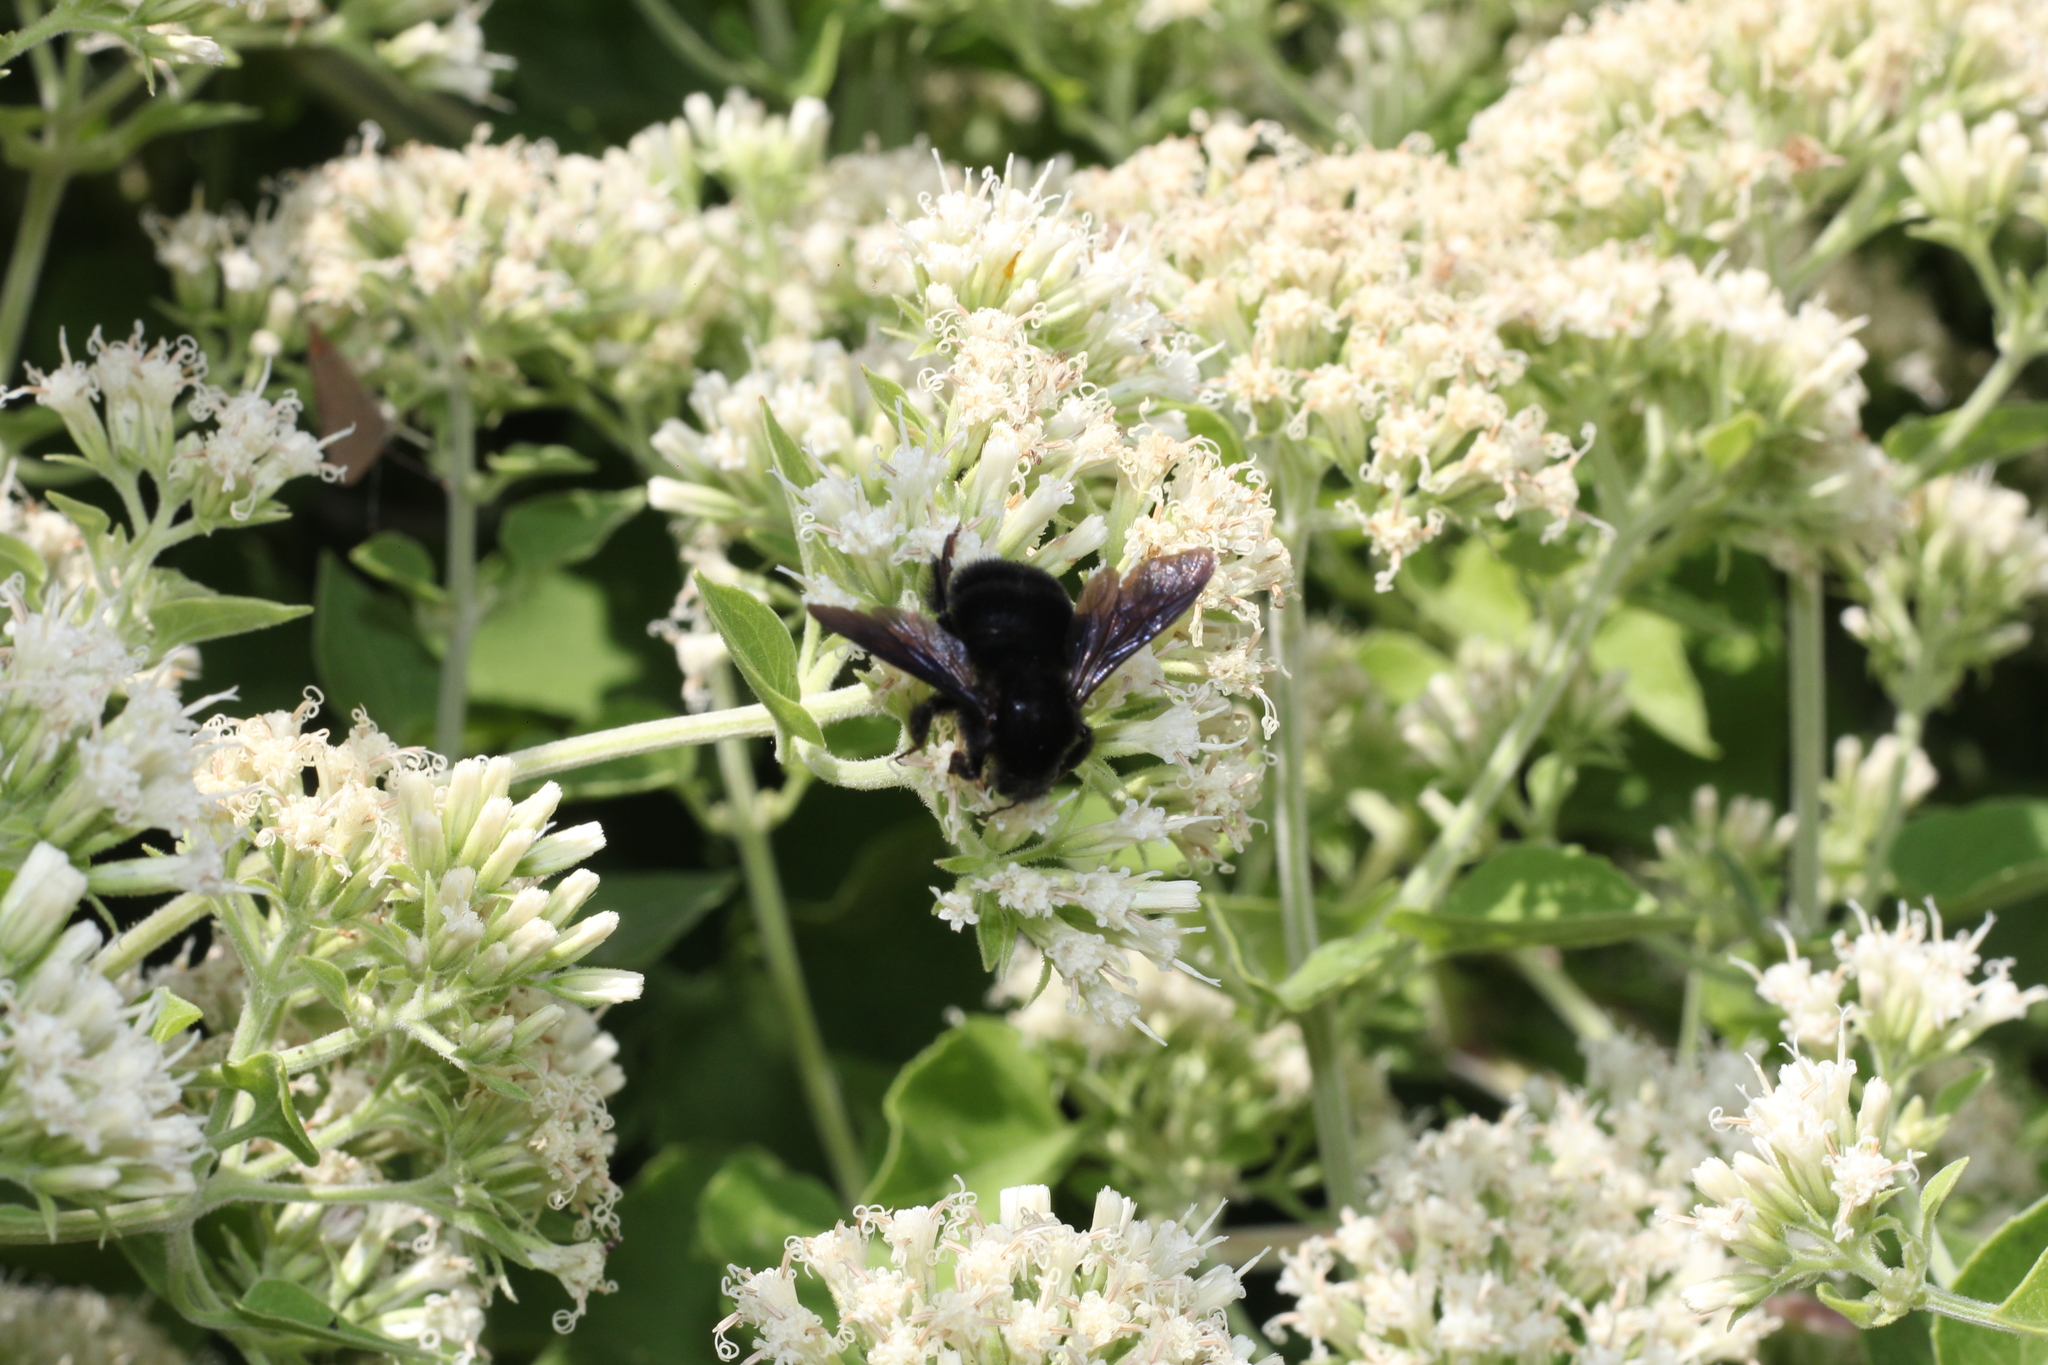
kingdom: Animalia
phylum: Arthropoda
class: Insecta
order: Hymenoptera
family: Apidae
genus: Bombus
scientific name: Bombus pauloensis
